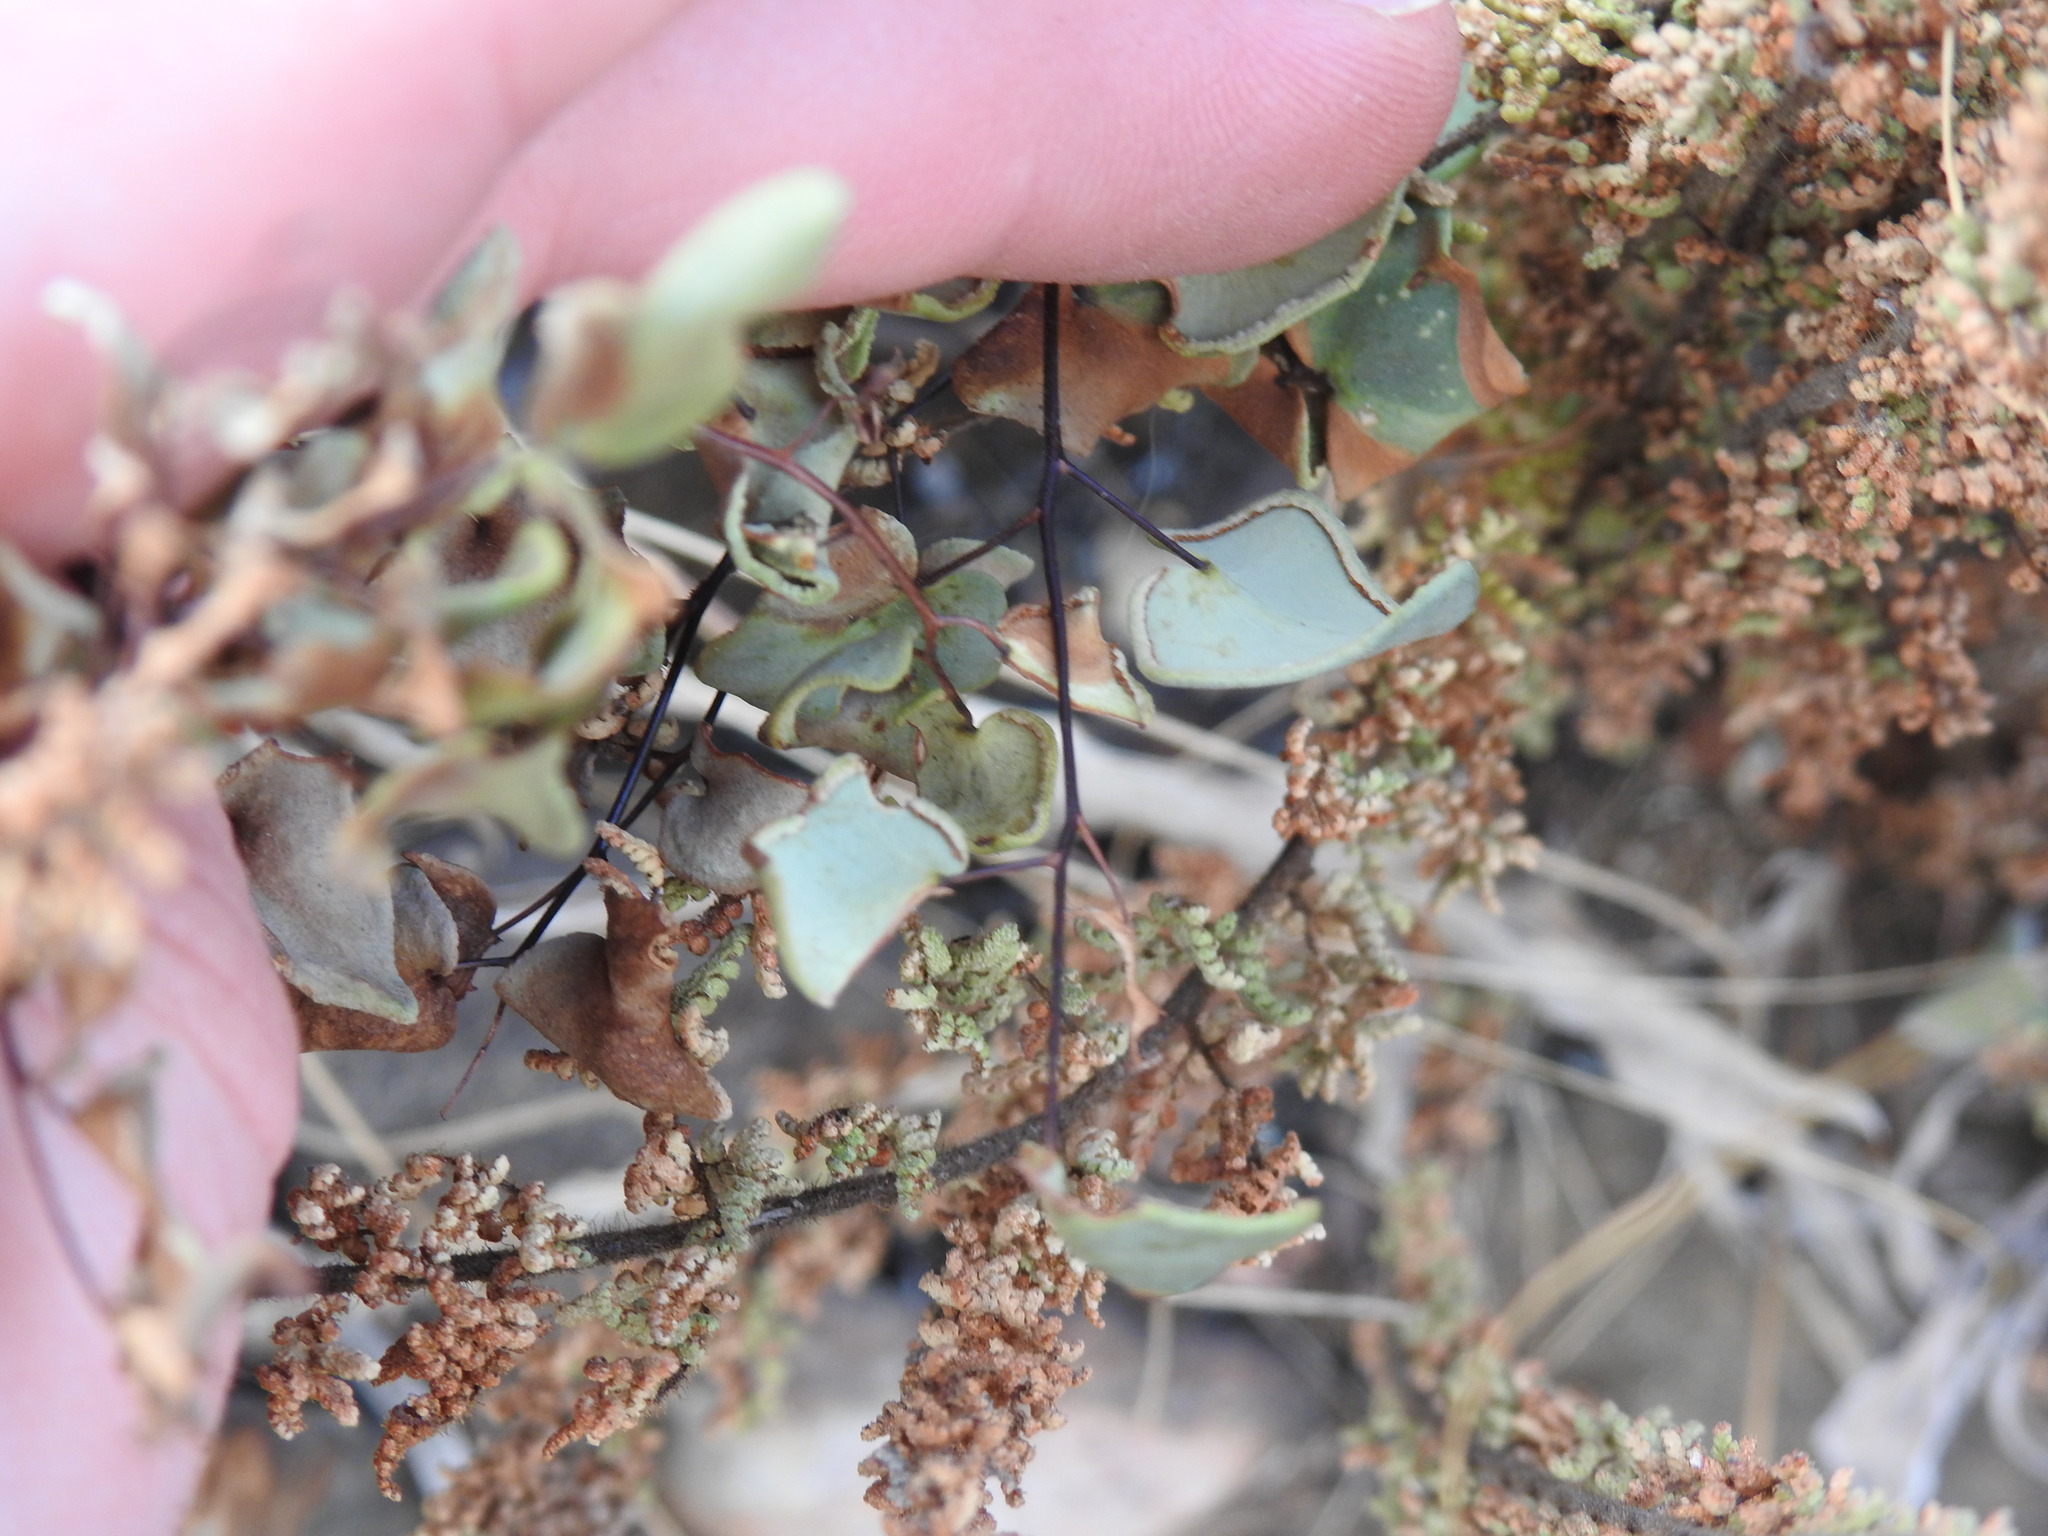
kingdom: Plantae
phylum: Tracheophyta
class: Polypodiopsida
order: Polypodiales
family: Pteridaceae
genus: Pellaea
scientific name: Pellaea calomelanos
